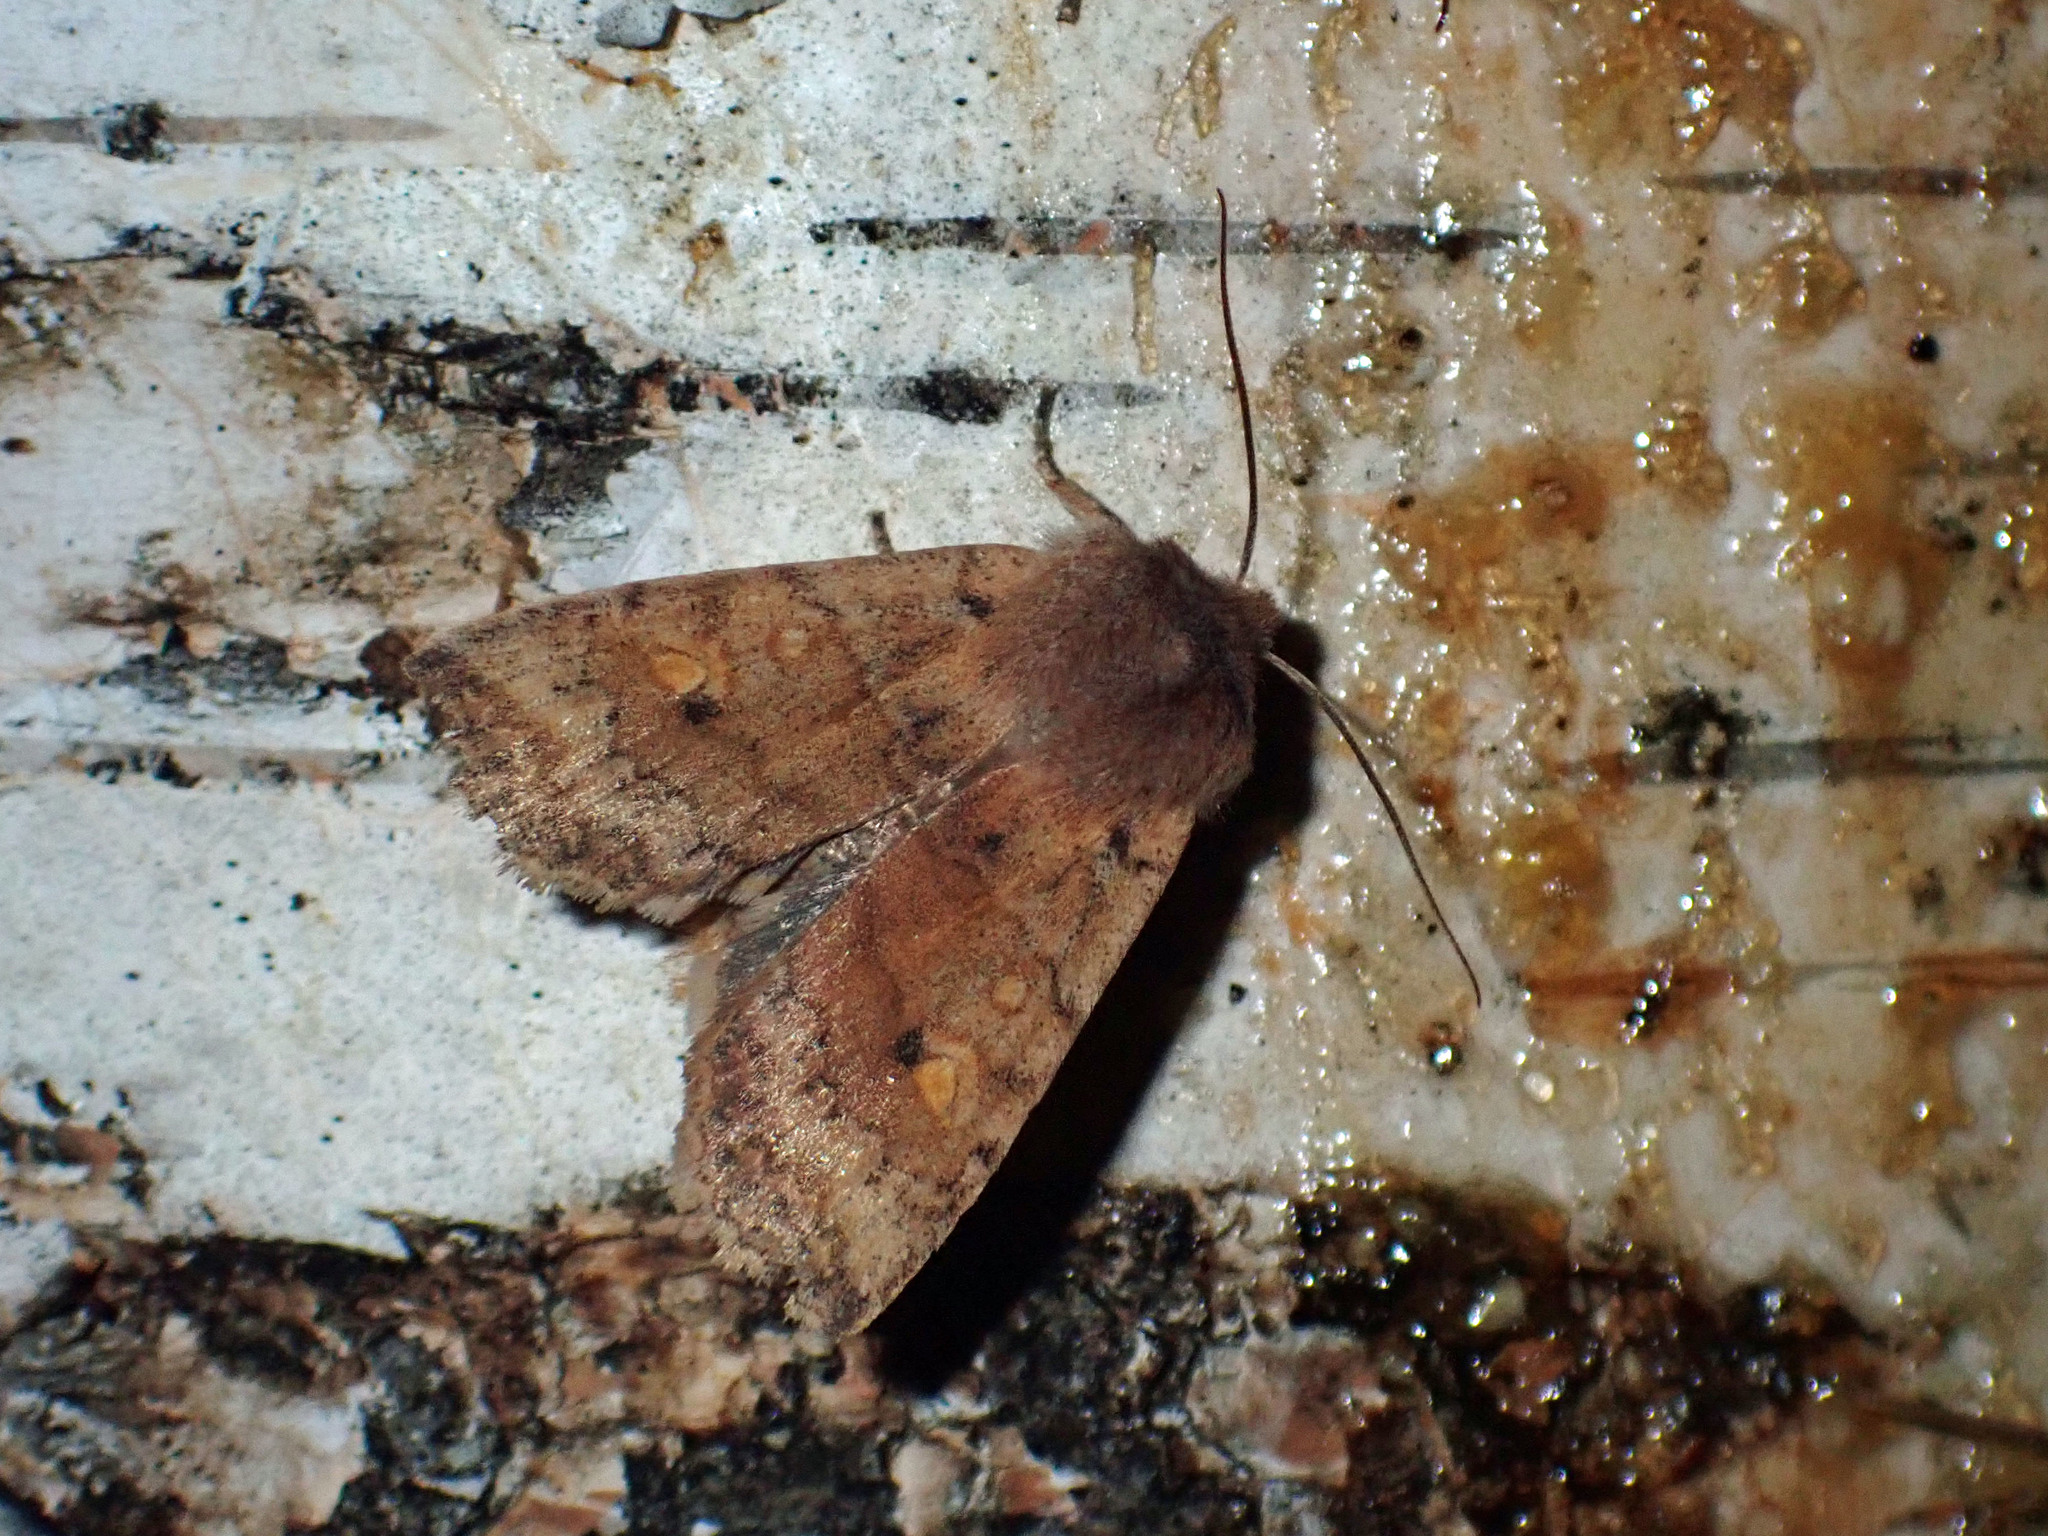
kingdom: Animalia
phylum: Arthropoda
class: Insecta
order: Lepidoptera
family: Noctuidae
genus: Eupsilia
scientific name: Eupsilia tristigmata
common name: Three-spotted sallow
